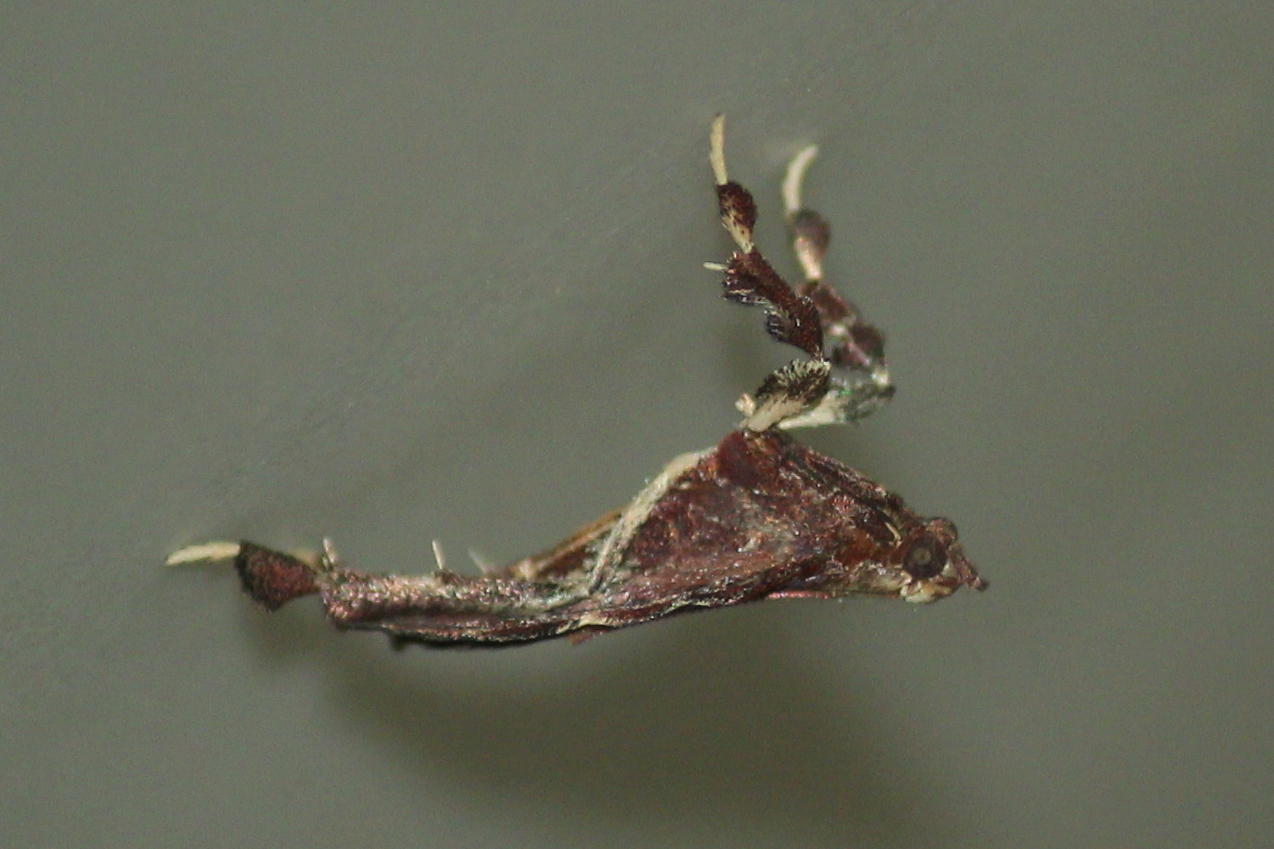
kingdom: Animalia
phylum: Arthropoda
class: Insecta
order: Lepidoptera
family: Pyralidae
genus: Galasa
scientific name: Galasa nigrinodis
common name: Boxwood leaftier moth
